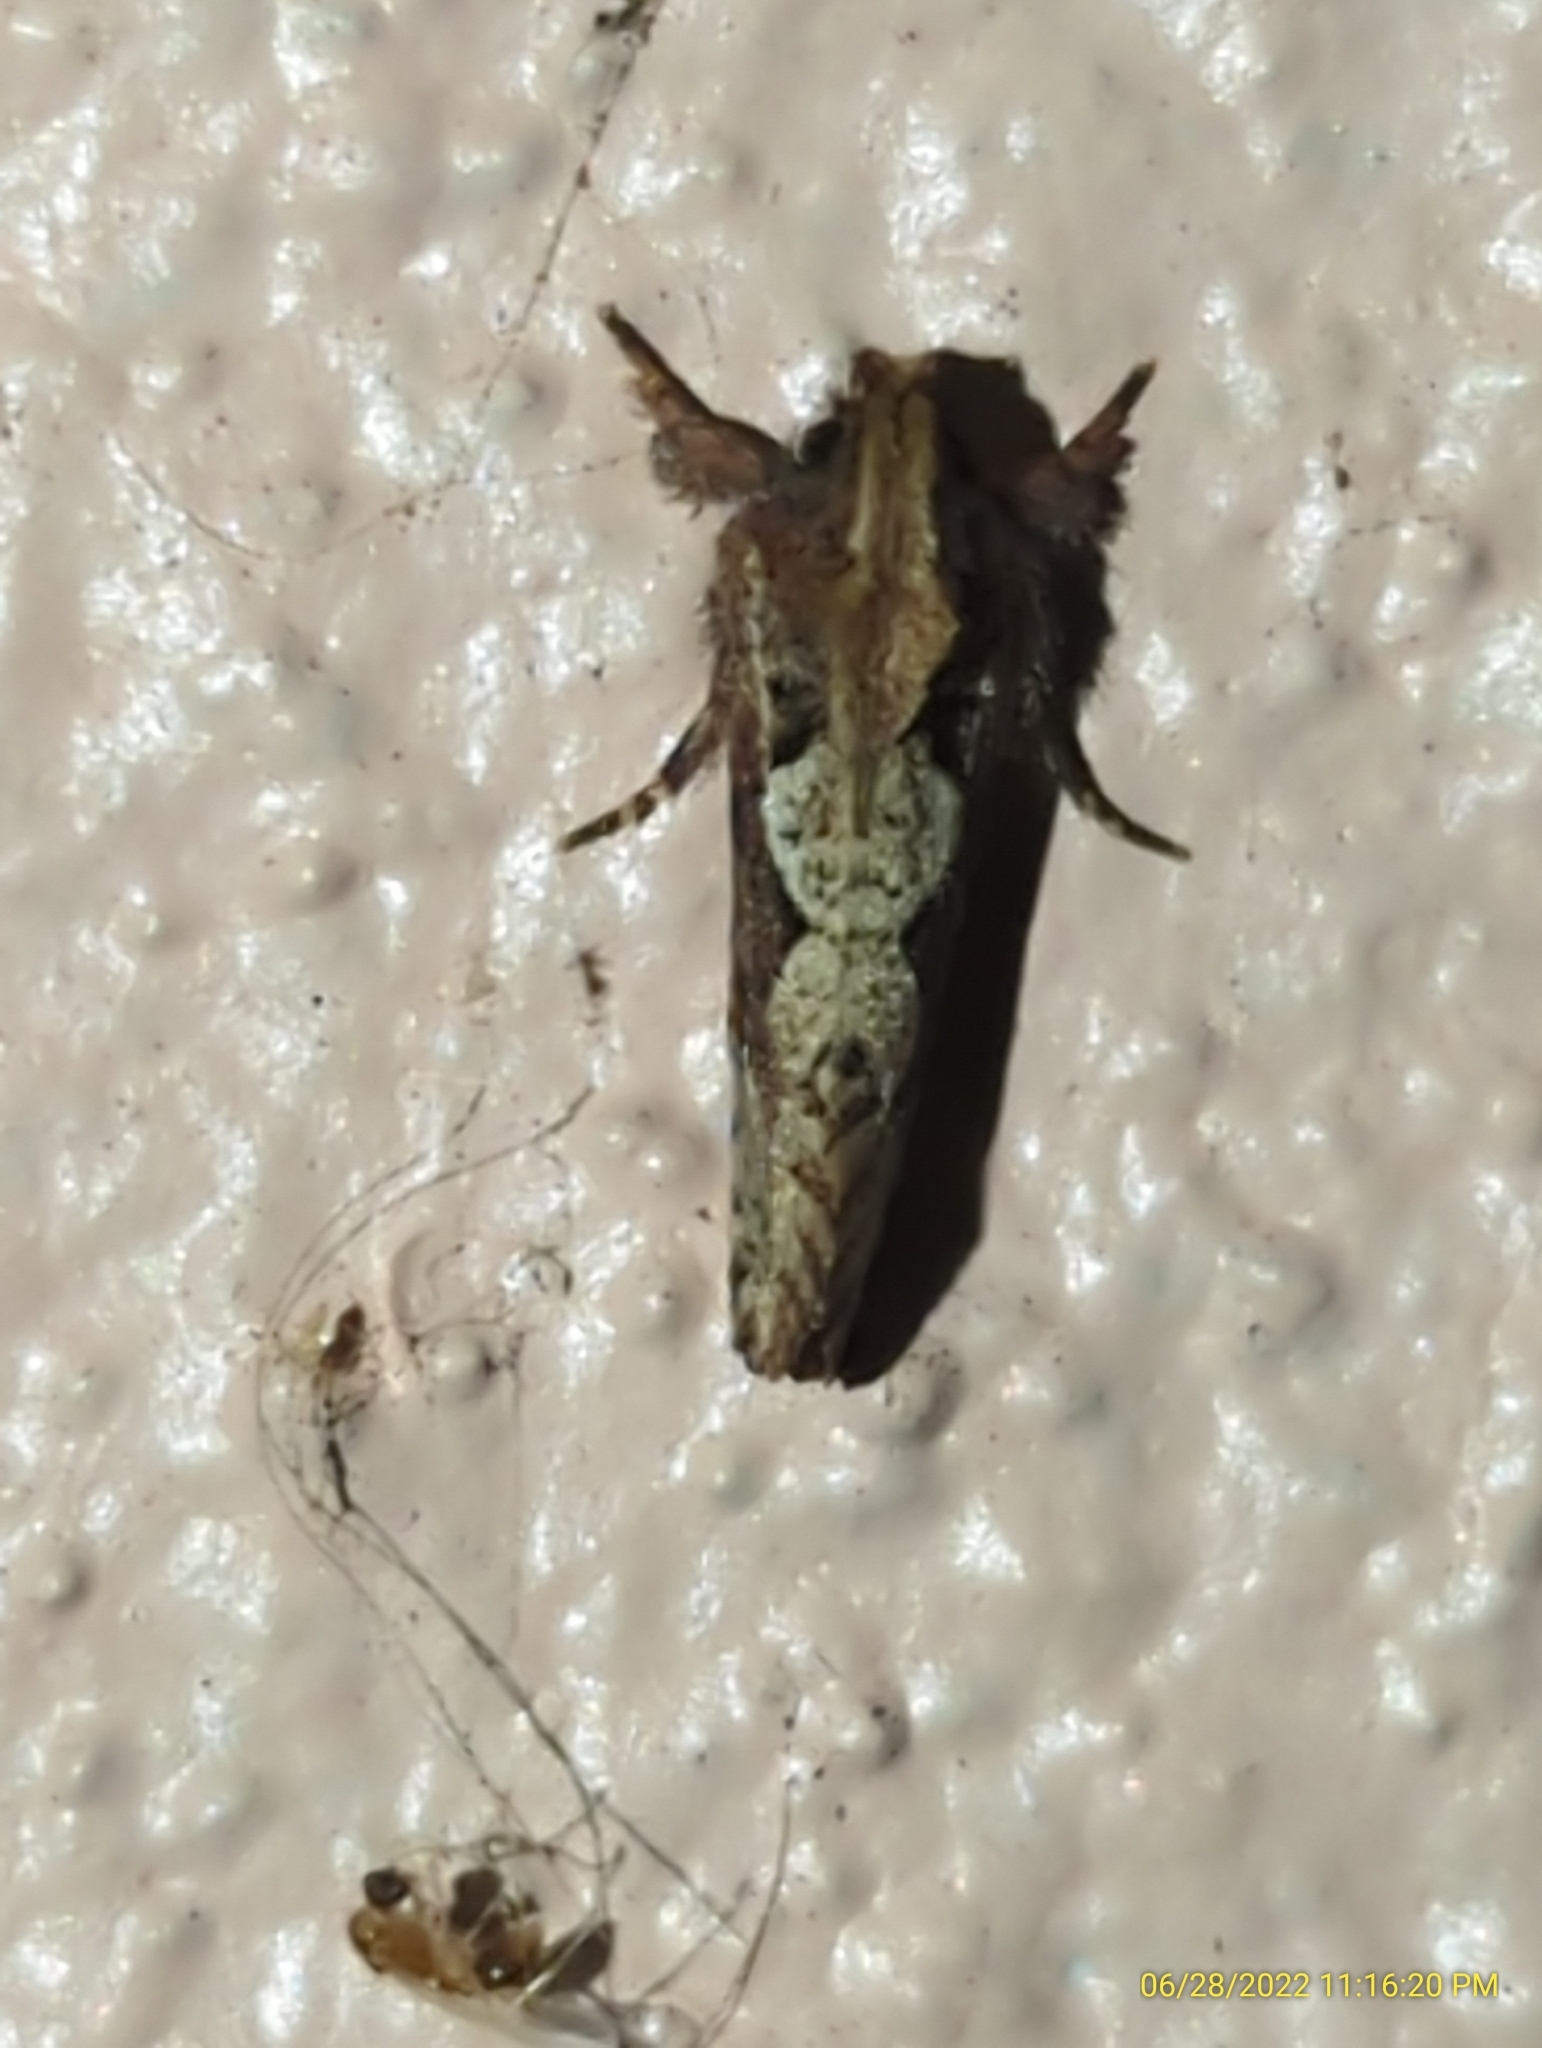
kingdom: Animalia
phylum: Arthropoda
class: Insecta
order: Lepidoptera
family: Tineidae
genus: Acrolophus
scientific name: Acrolophus walsinghami
